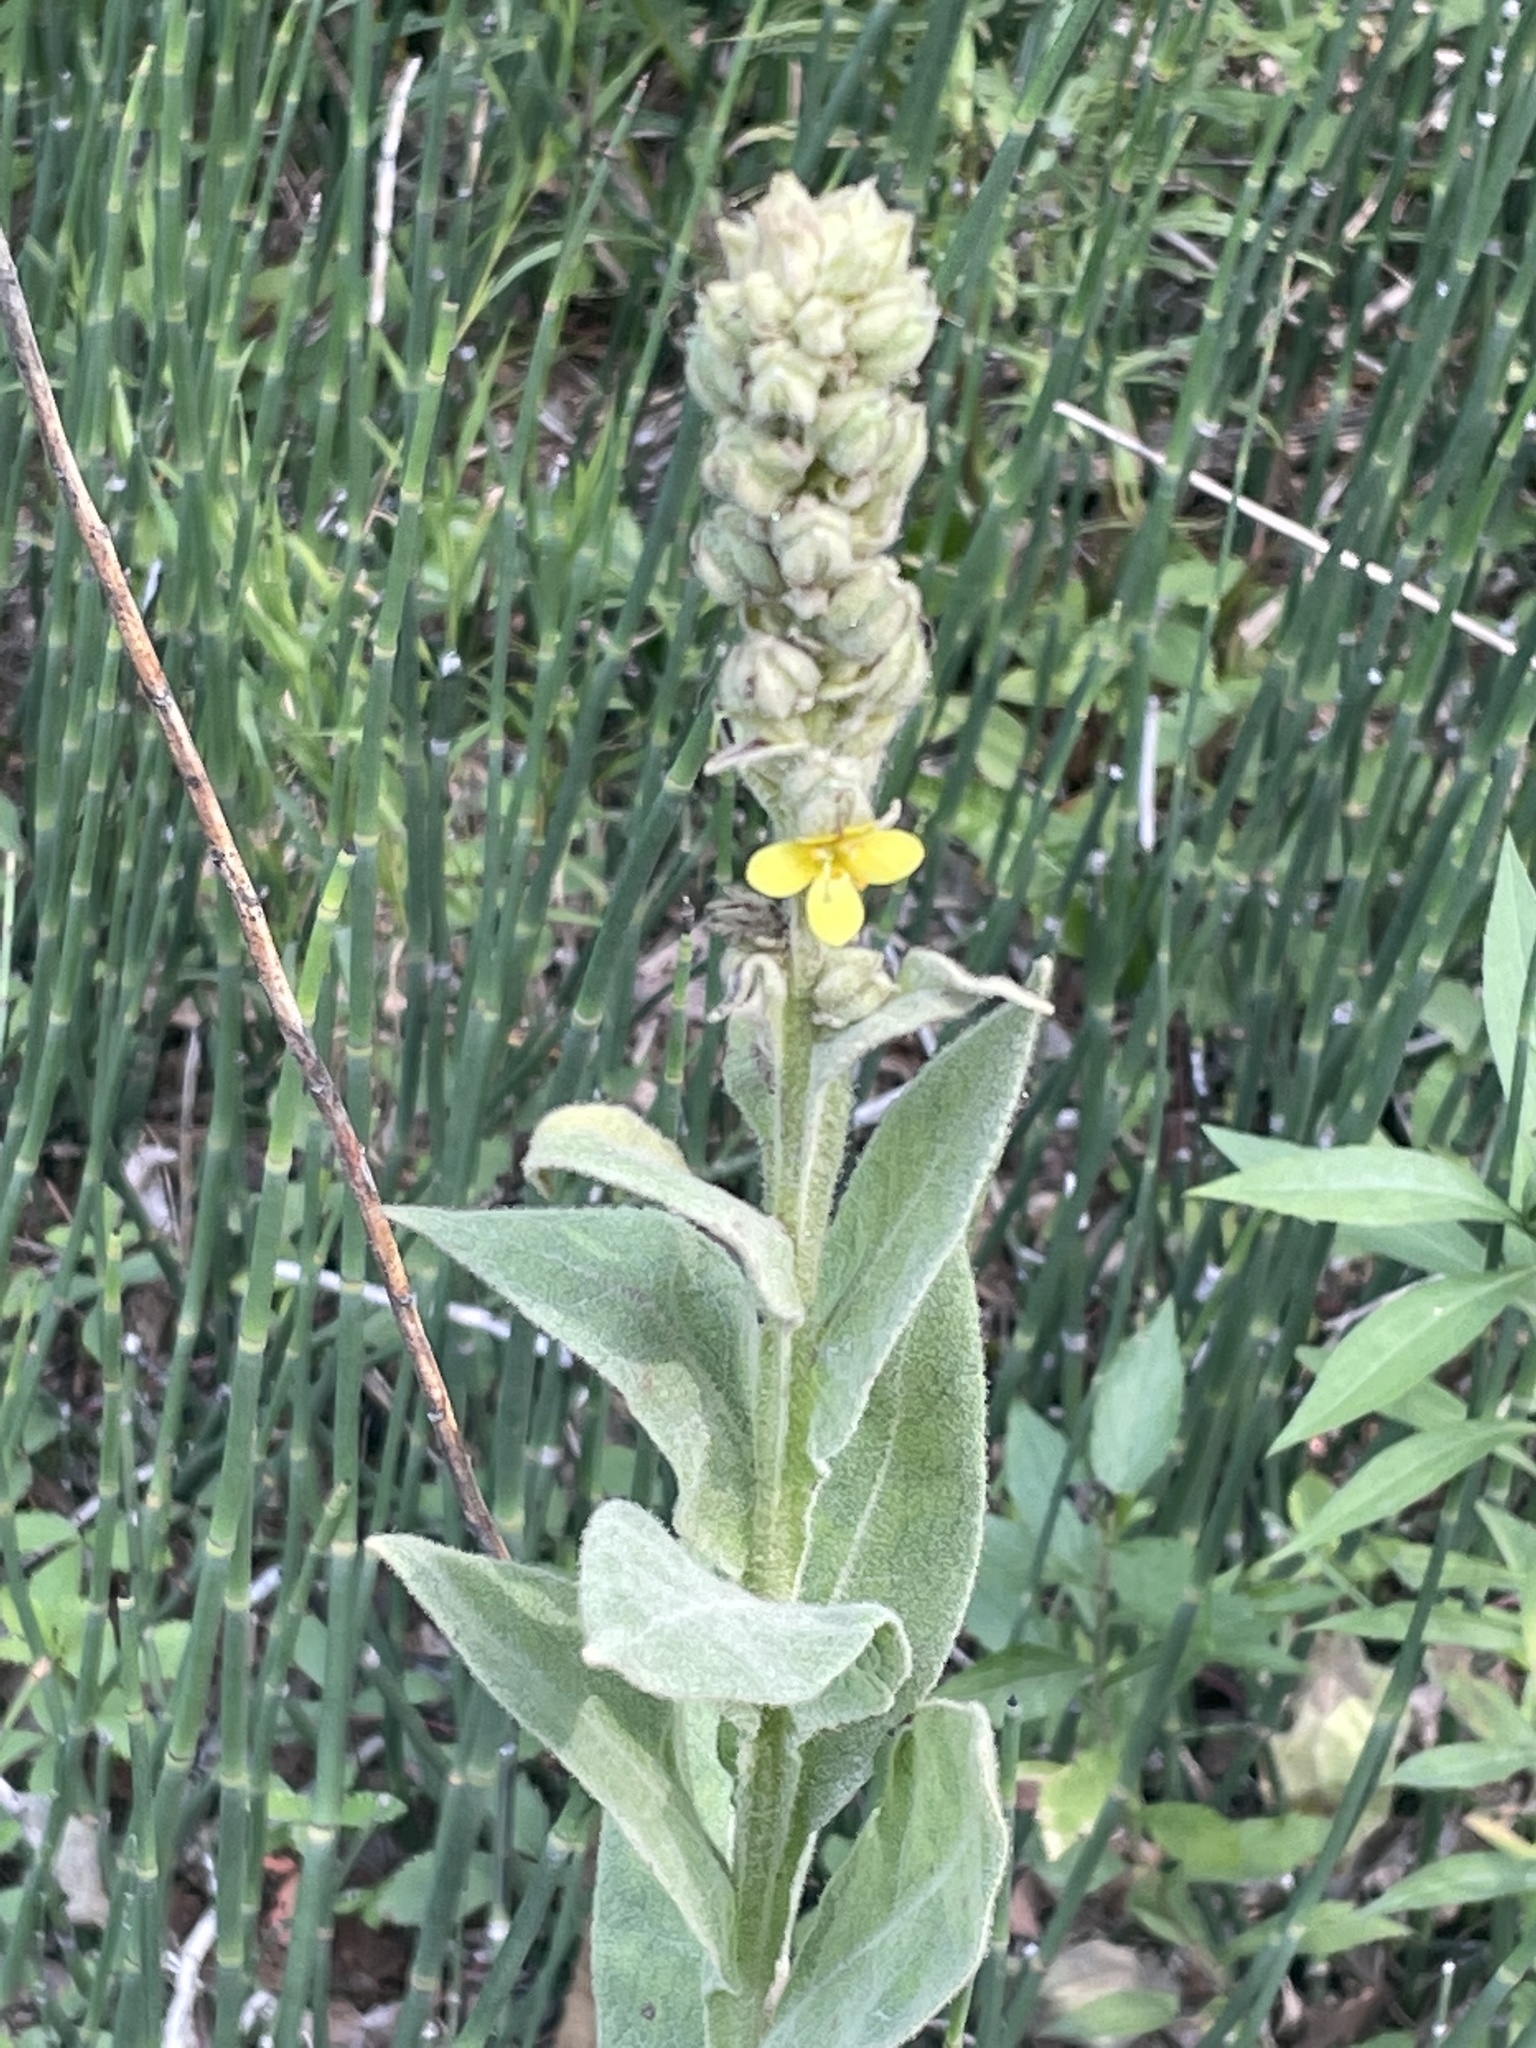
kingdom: Plantae
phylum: Tracheophyta
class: Magnoliopsida
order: Lamiales
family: Scrophulariaceae
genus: Verbascum
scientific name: Verbascum thapsus
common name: Common mullein
